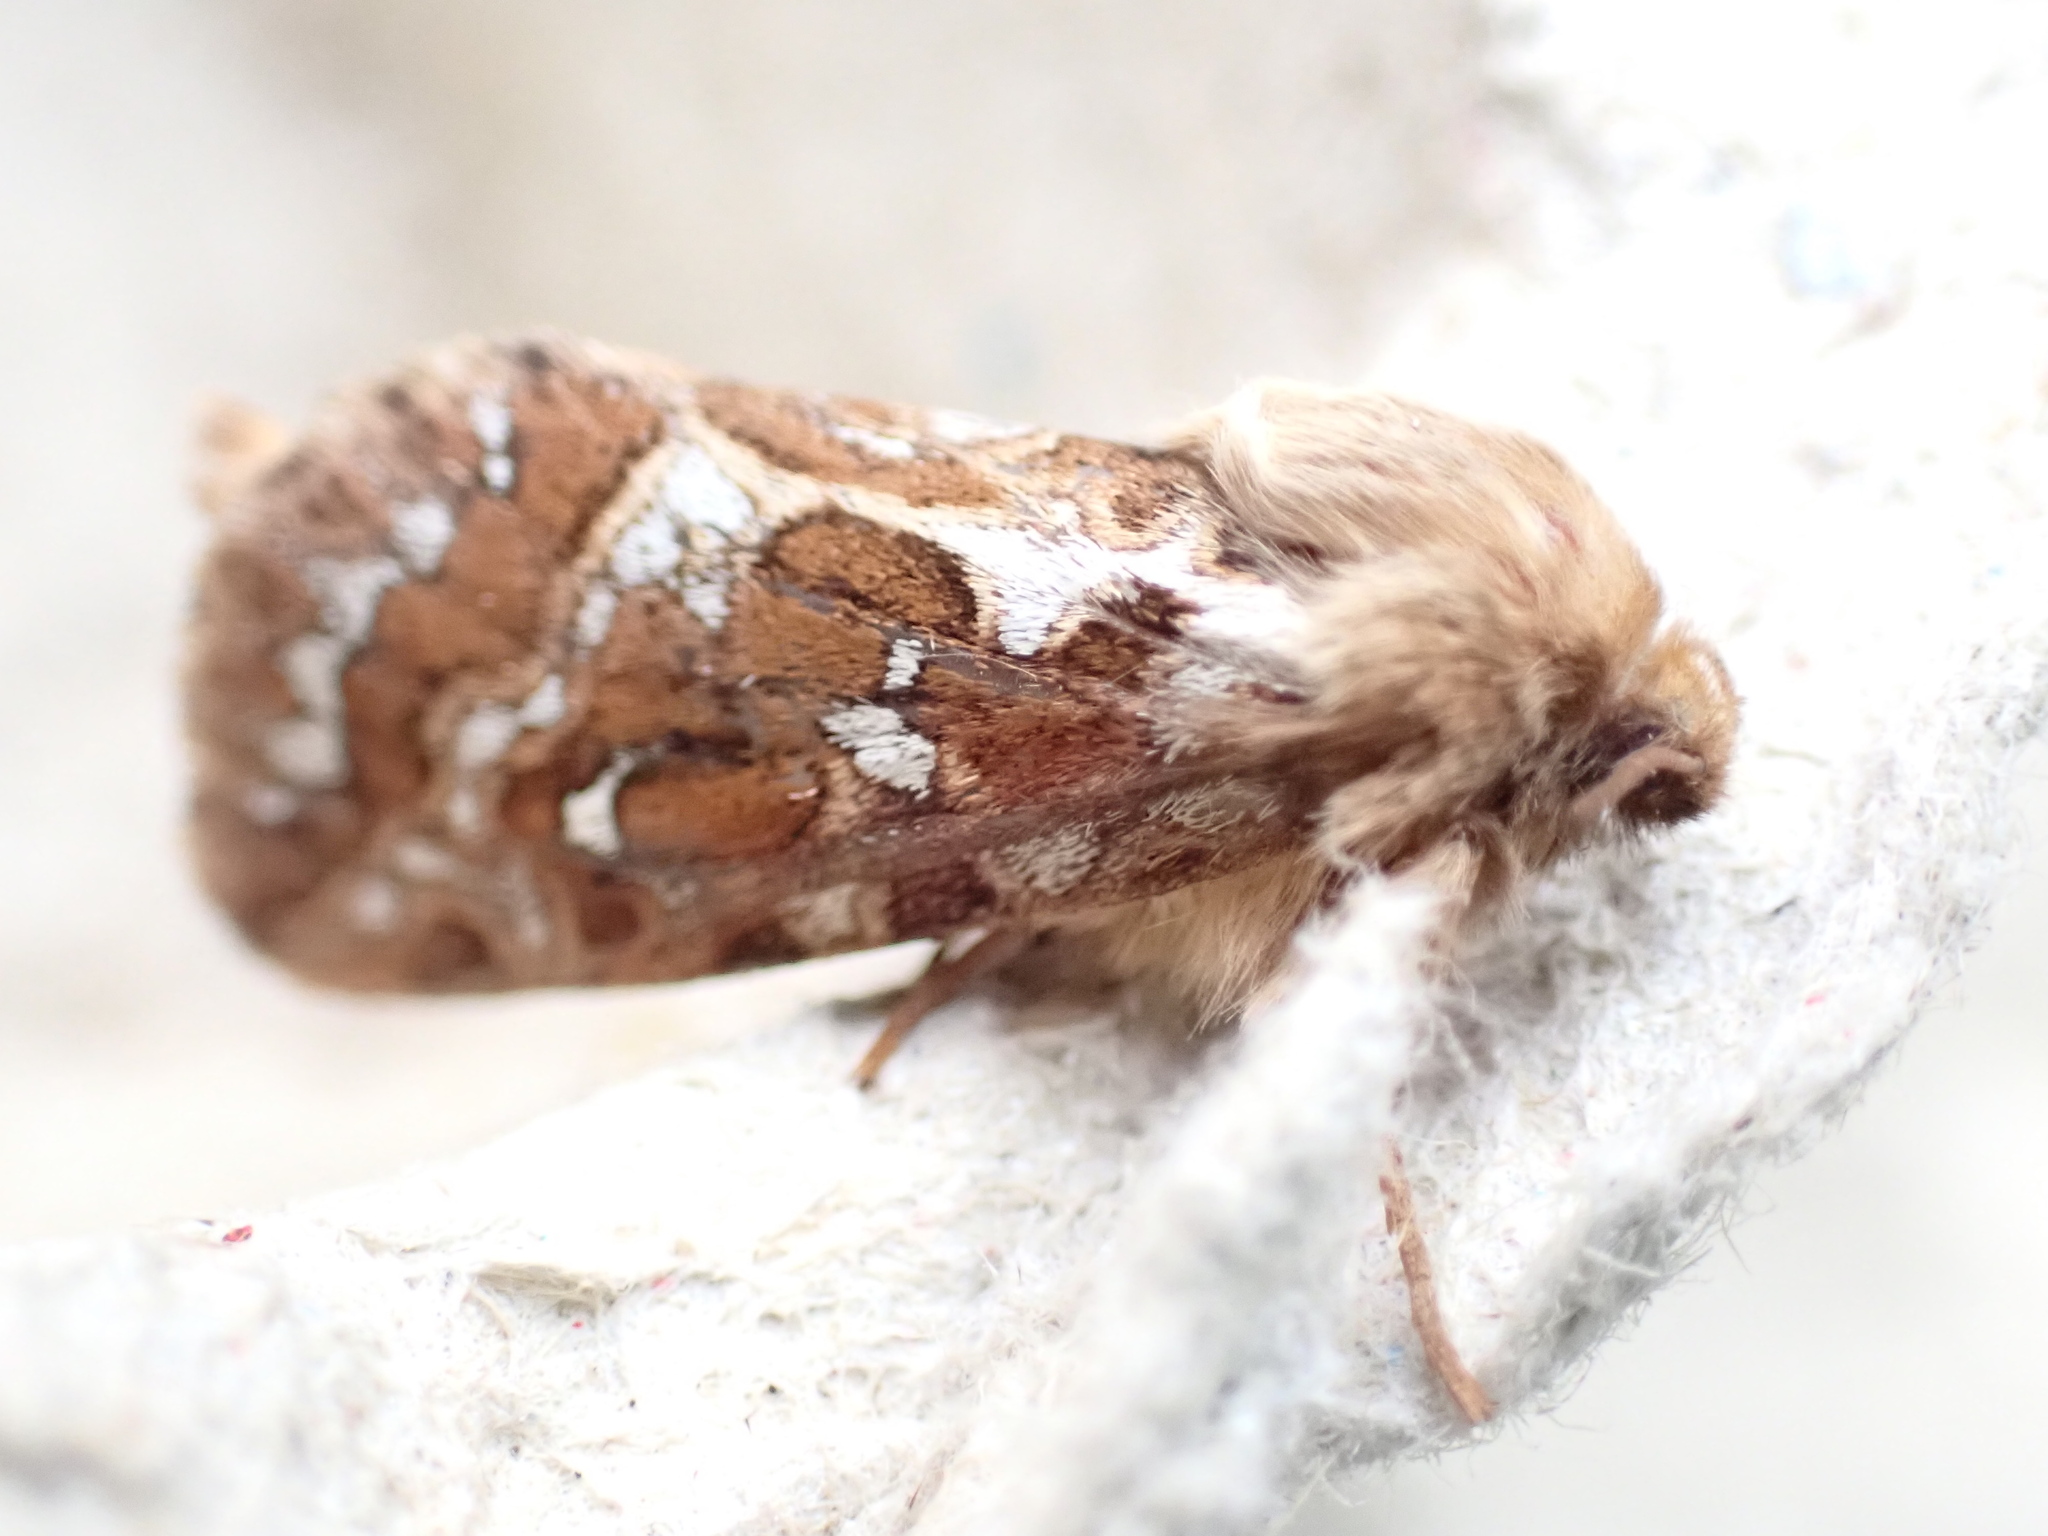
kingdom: Animalia
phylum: Arthropoda
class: Insecta
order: Lepidoptera
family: Hepialidae
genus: Korscheltellus
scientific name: Korscheltellus fusconebulosus
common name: Map-winged swift
